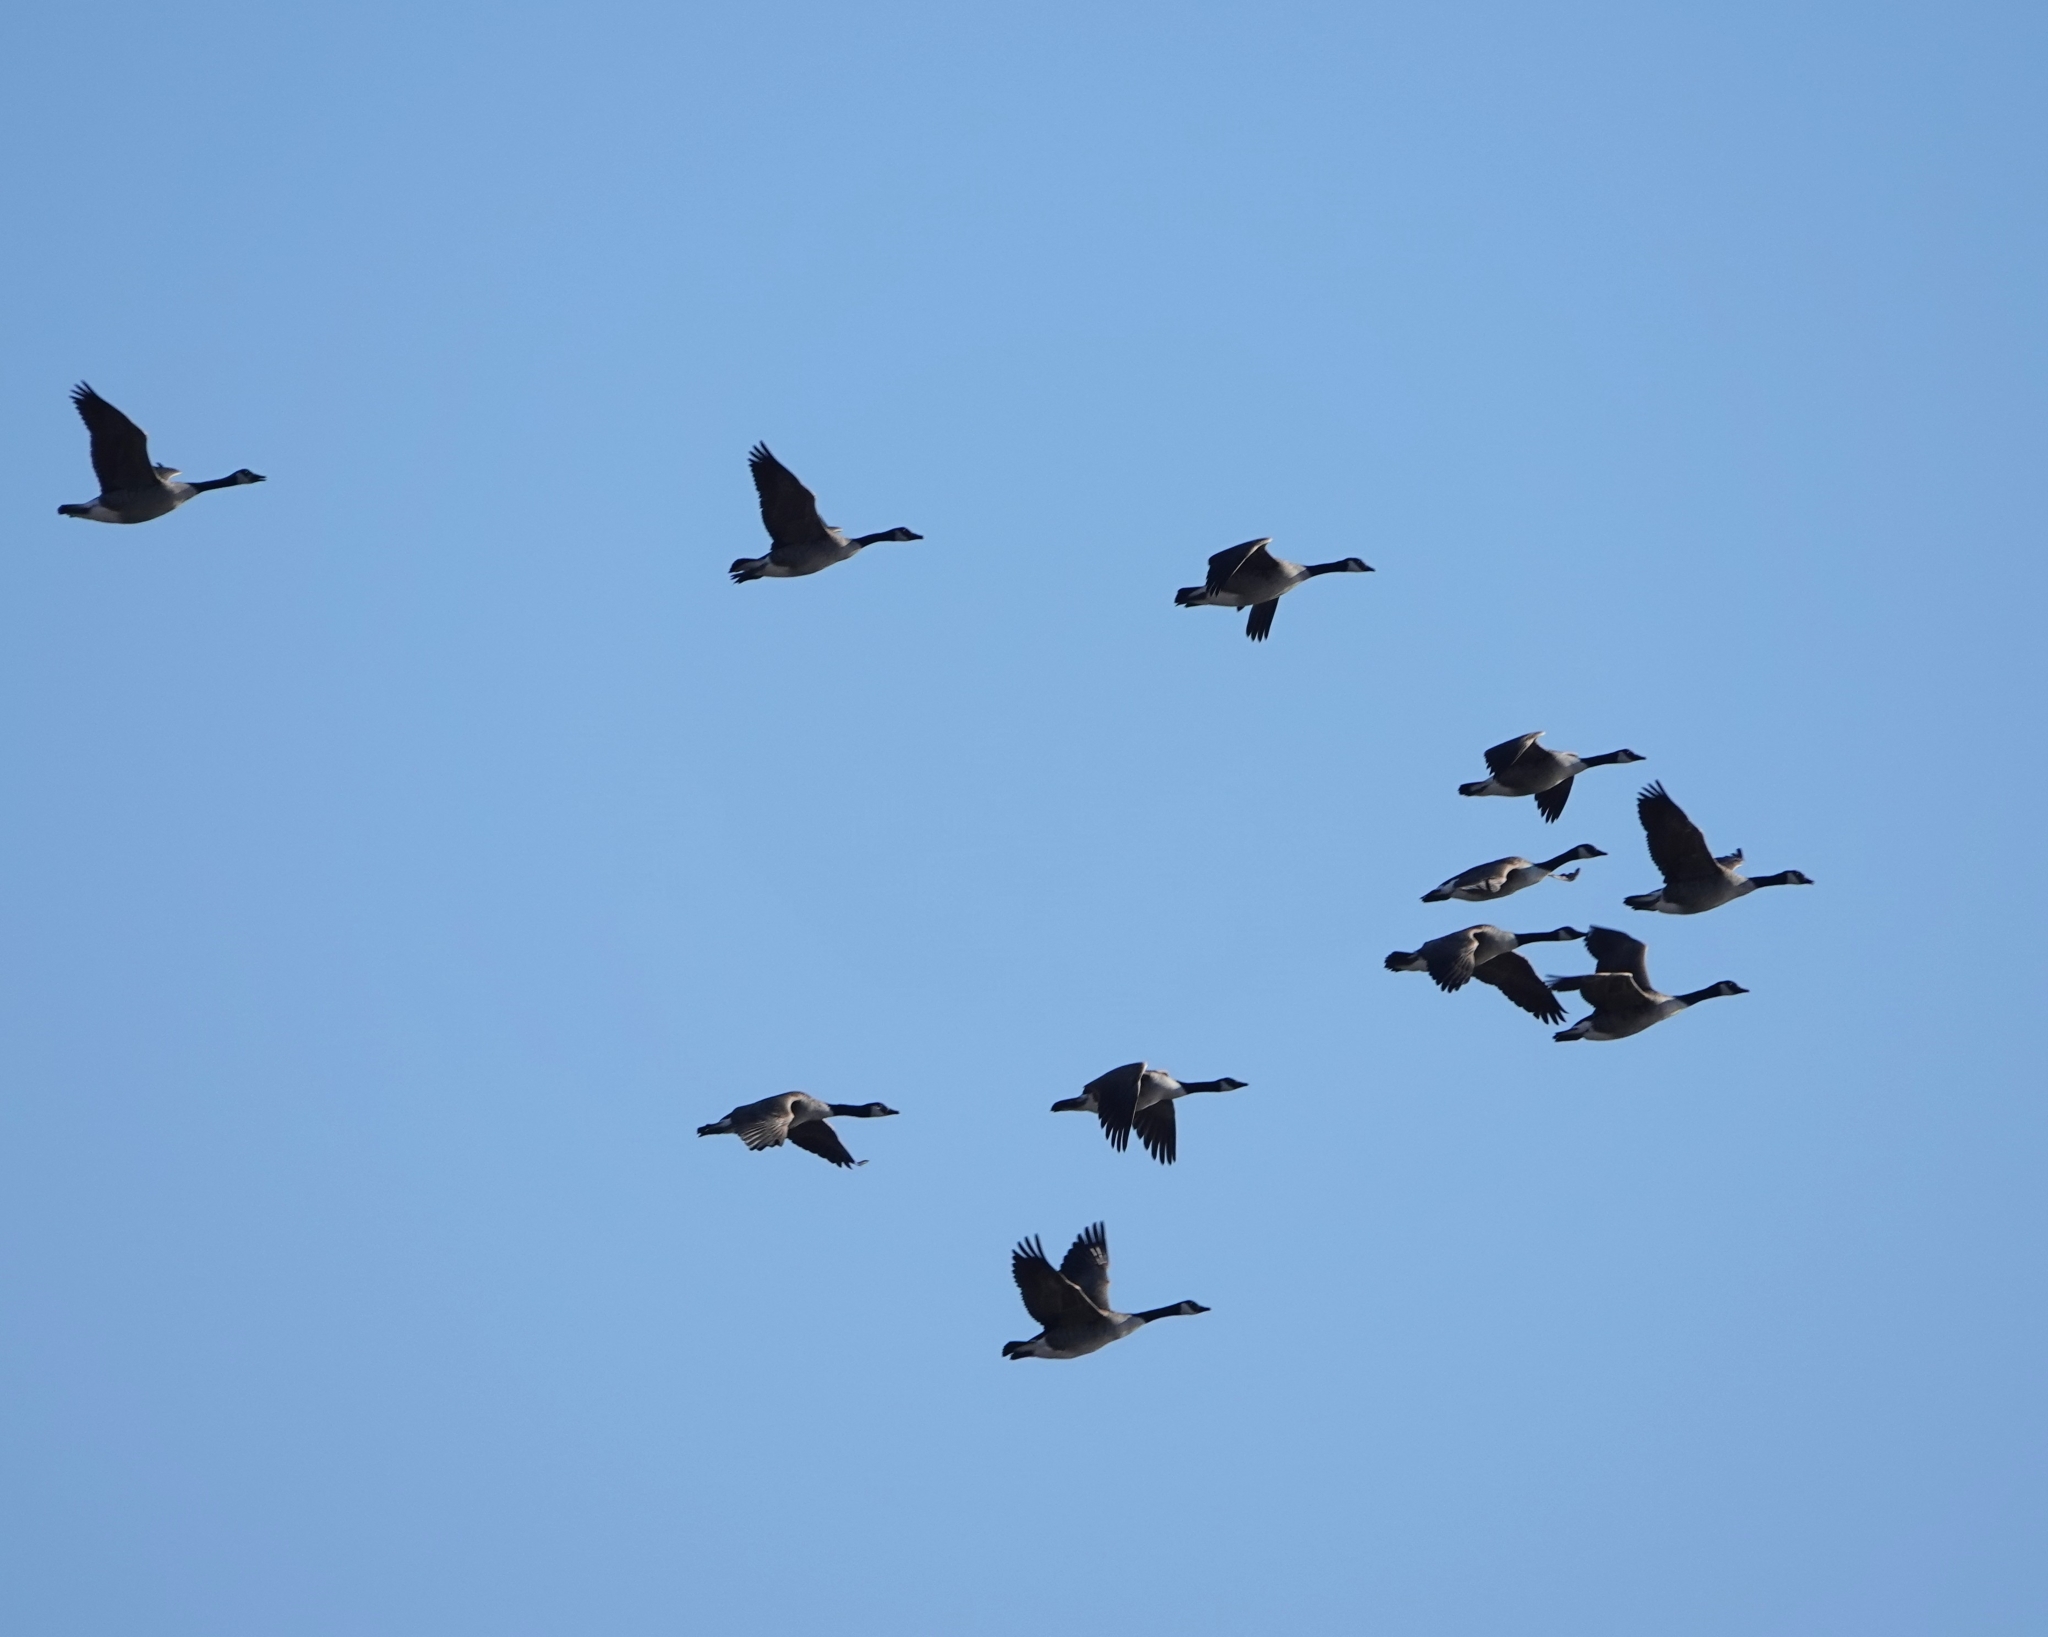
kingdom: Animalia
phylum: Chordata
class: Aves
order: Anseriformes
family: Anatidae
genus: Branta
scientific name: Branta canadensis
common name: Canada goose
